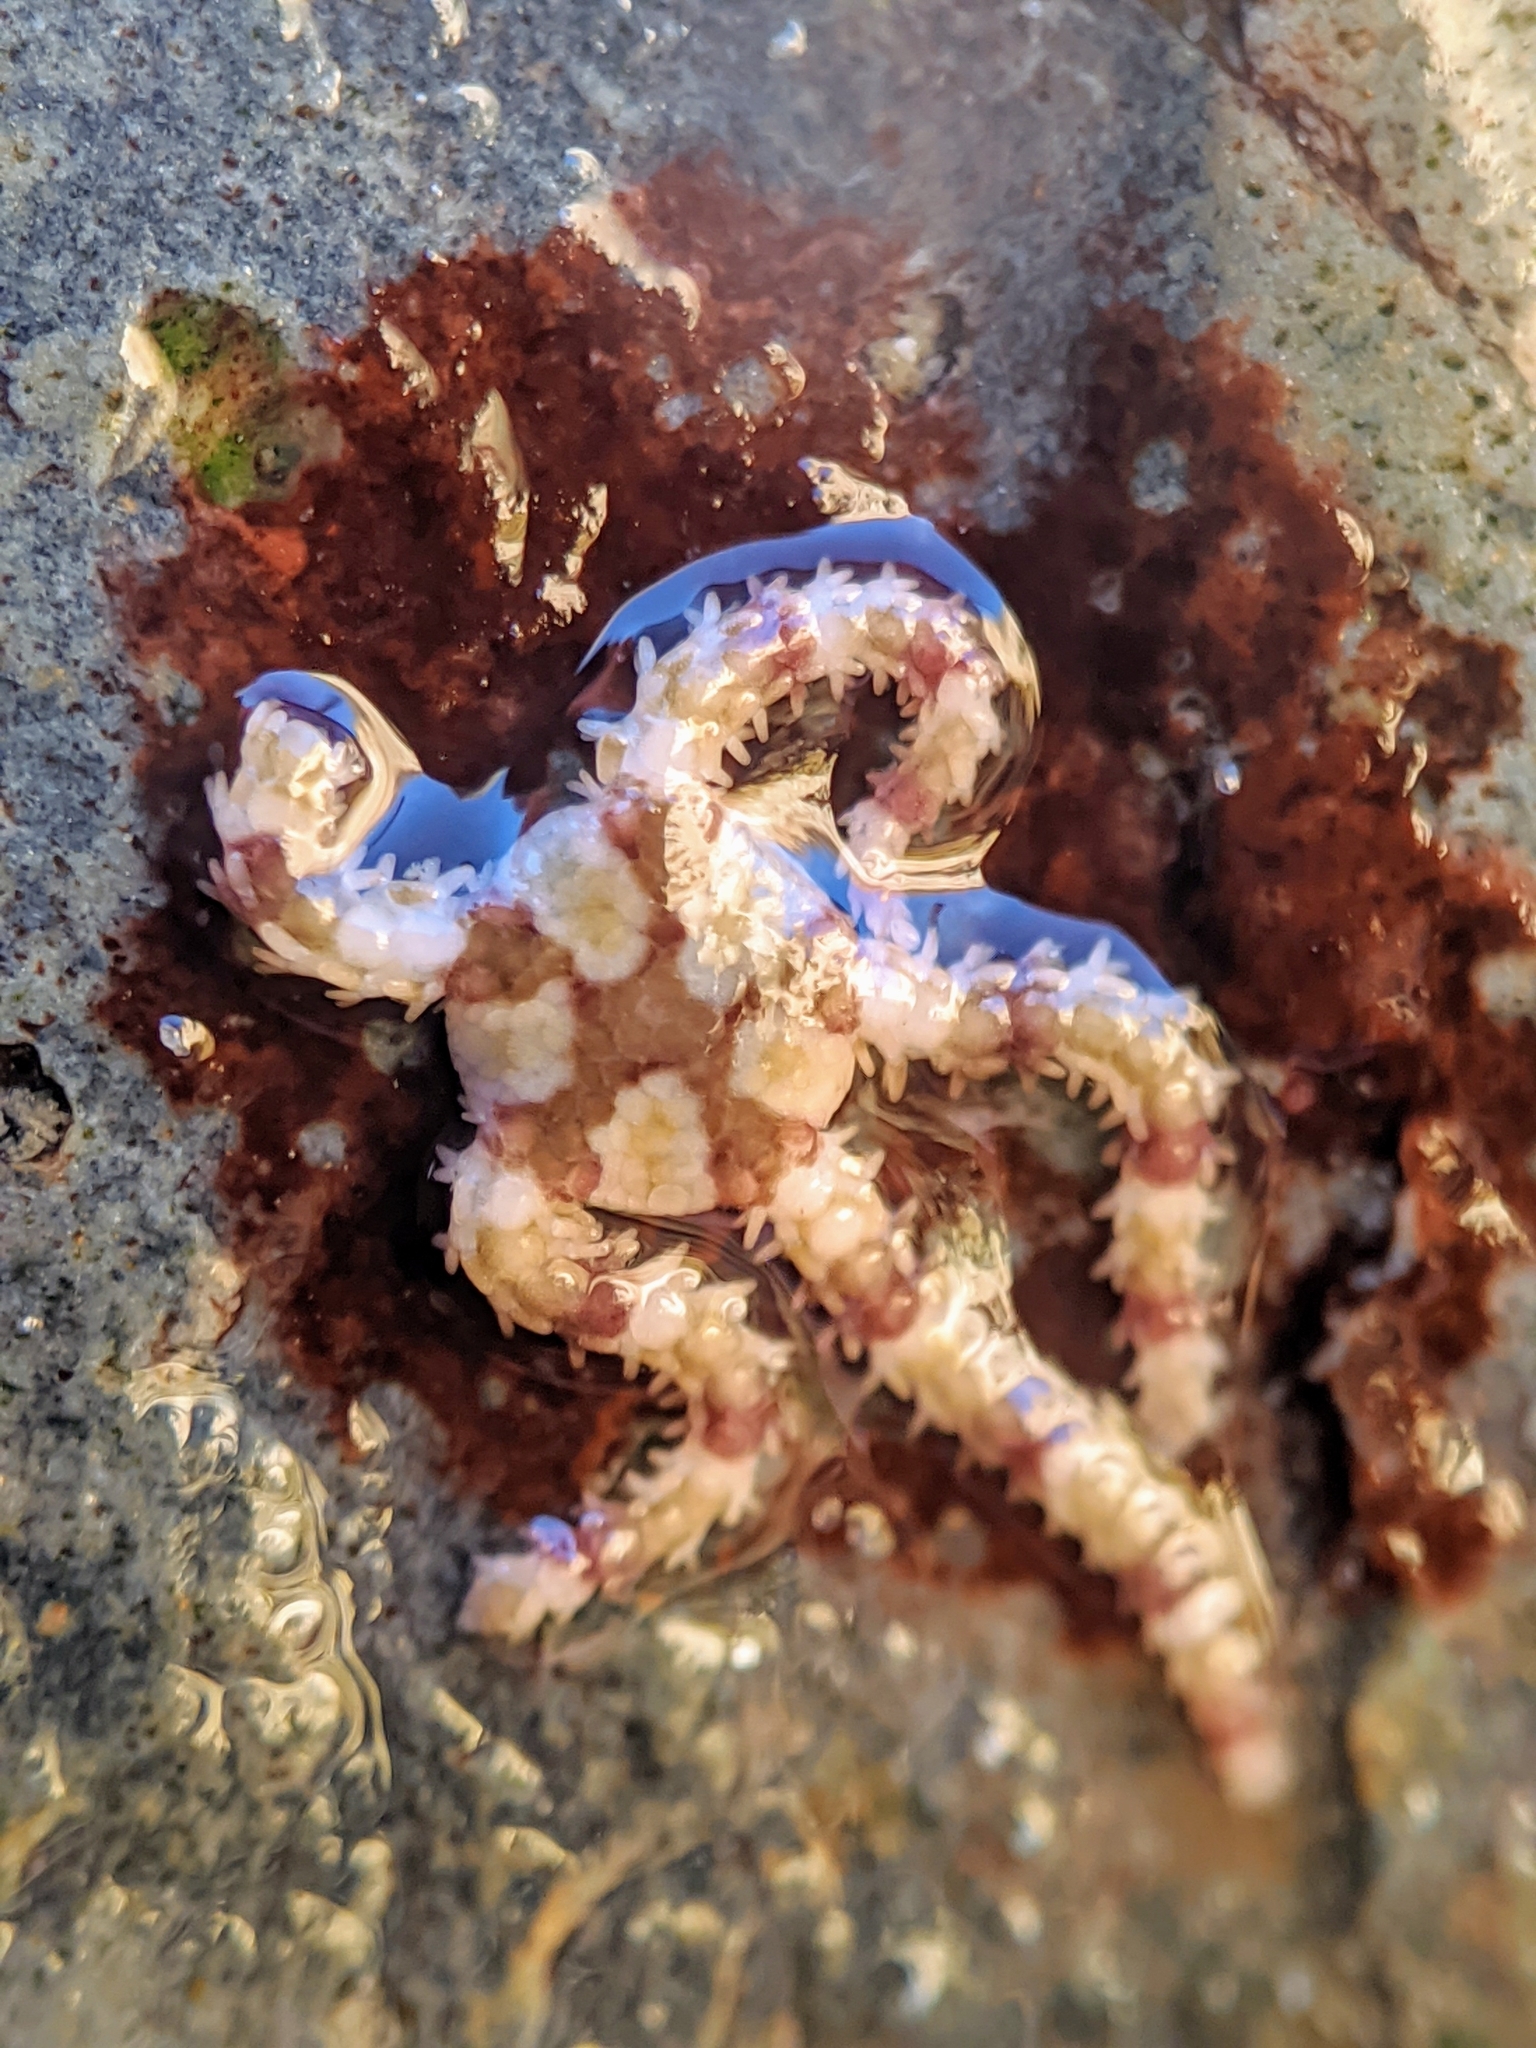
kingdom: Animalia
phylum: Echinodermata
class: Ophiuroidea
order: Amphilepidida
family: Ophionereididae
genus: Ophionereis
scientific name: Ophionereis diabloensis
